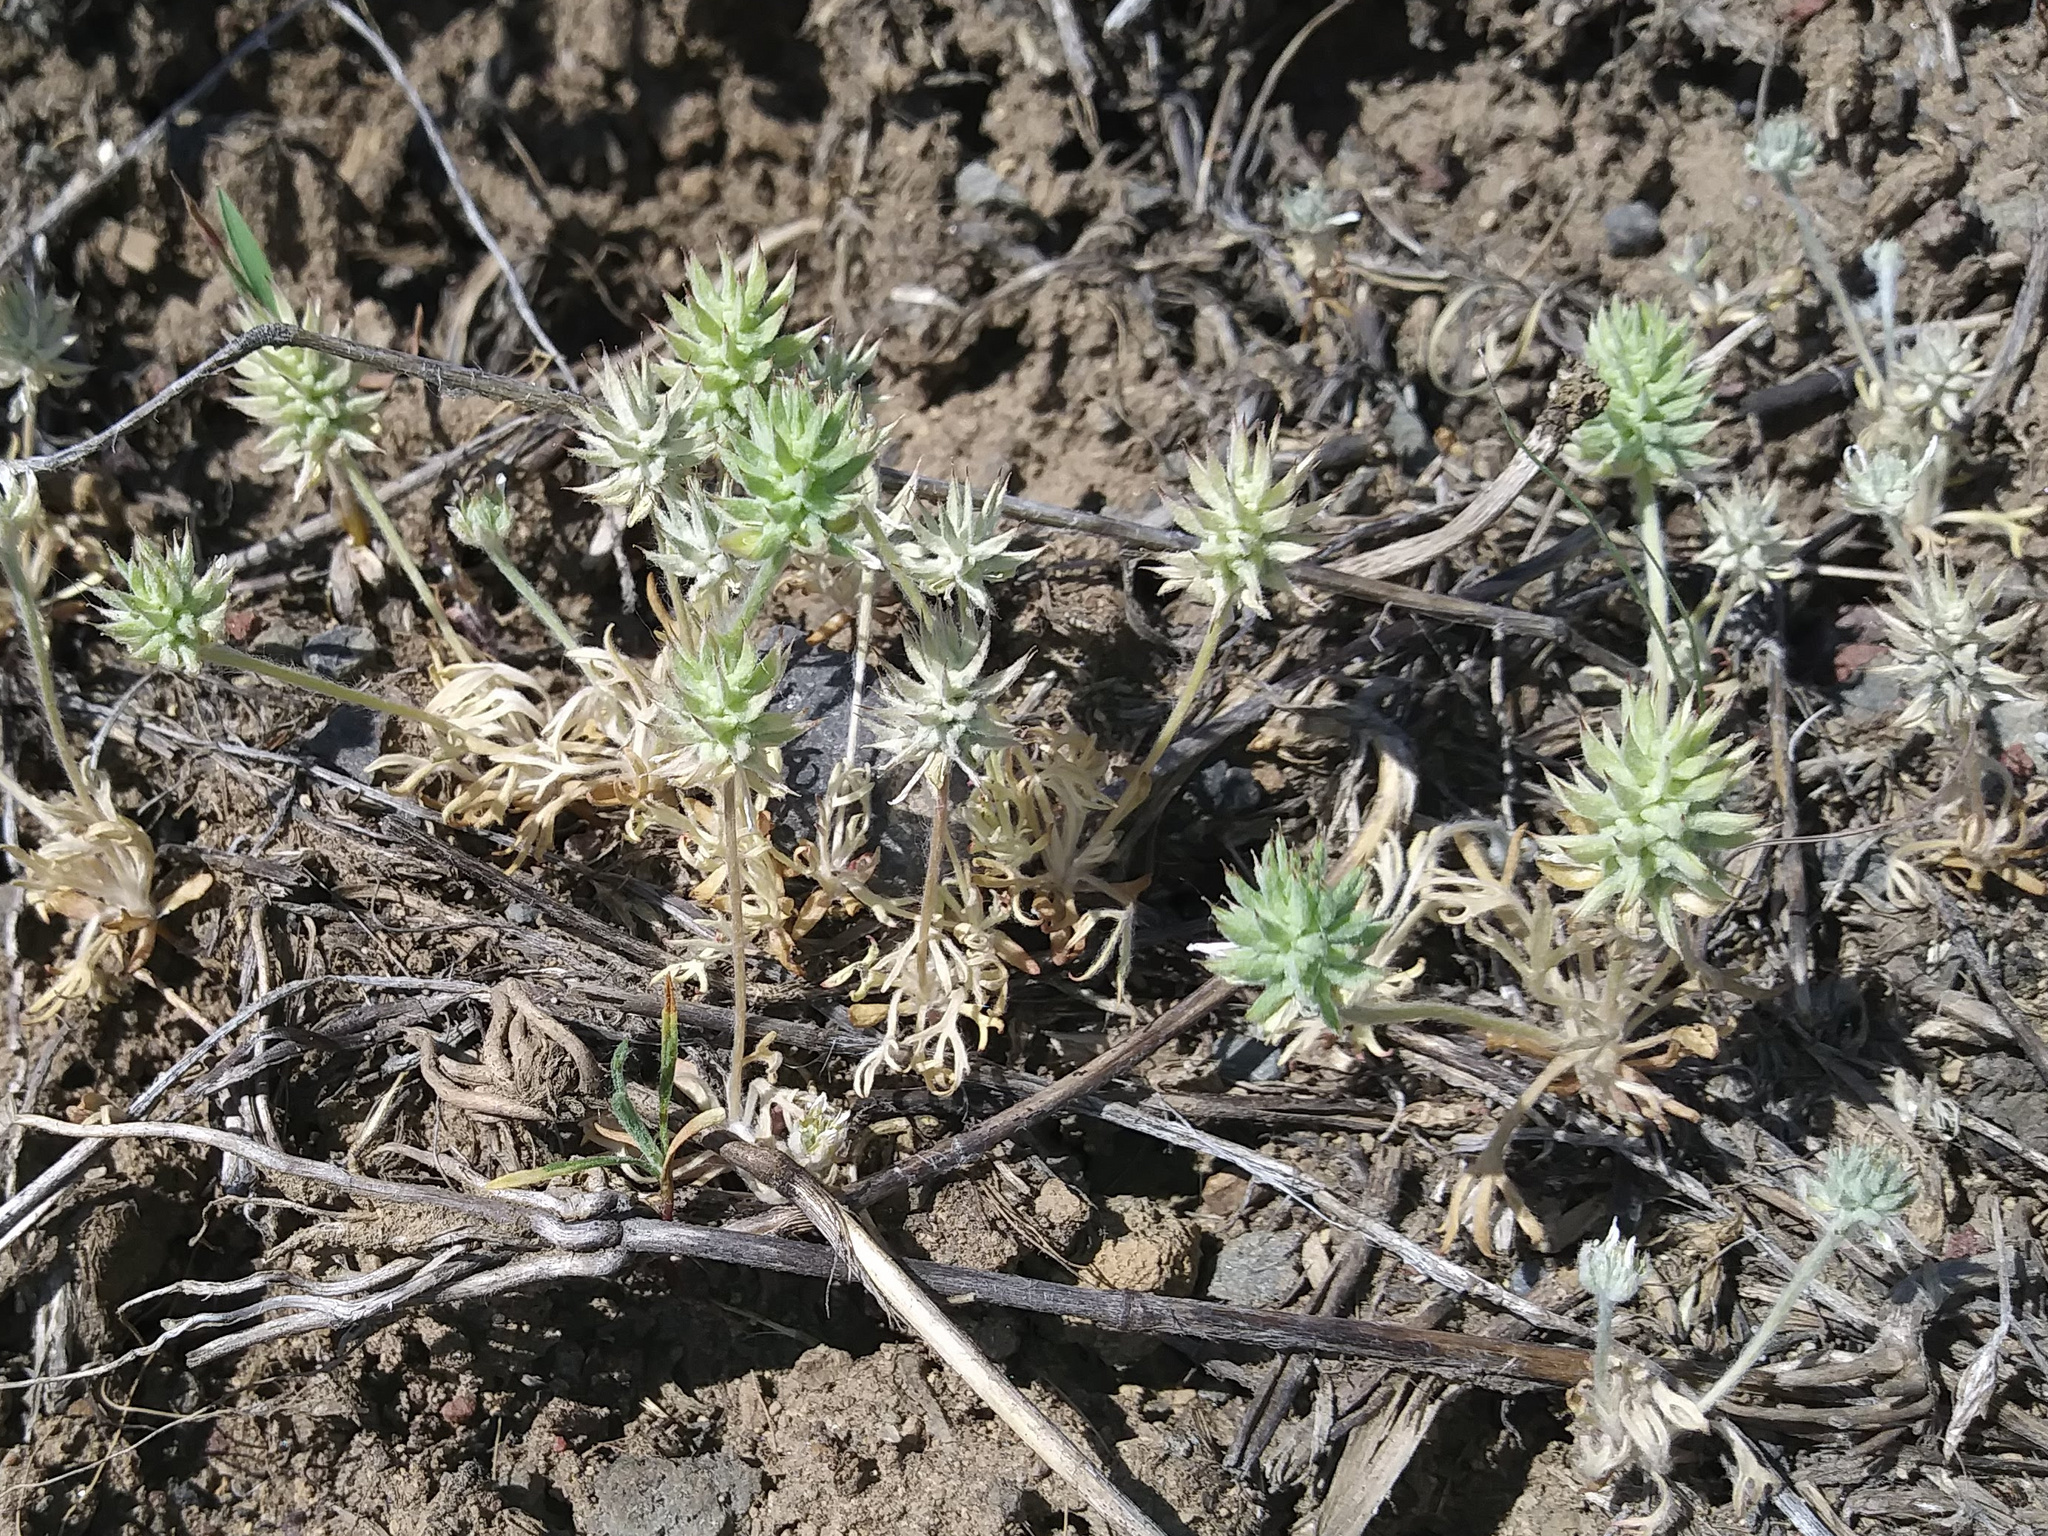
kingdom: Plantae
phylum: Tracheophyta
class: Magnoliopsida
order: Ranunculales
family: Ranunculaceae
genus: Ceratocephala
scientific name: Ceratocephala orthoceras
